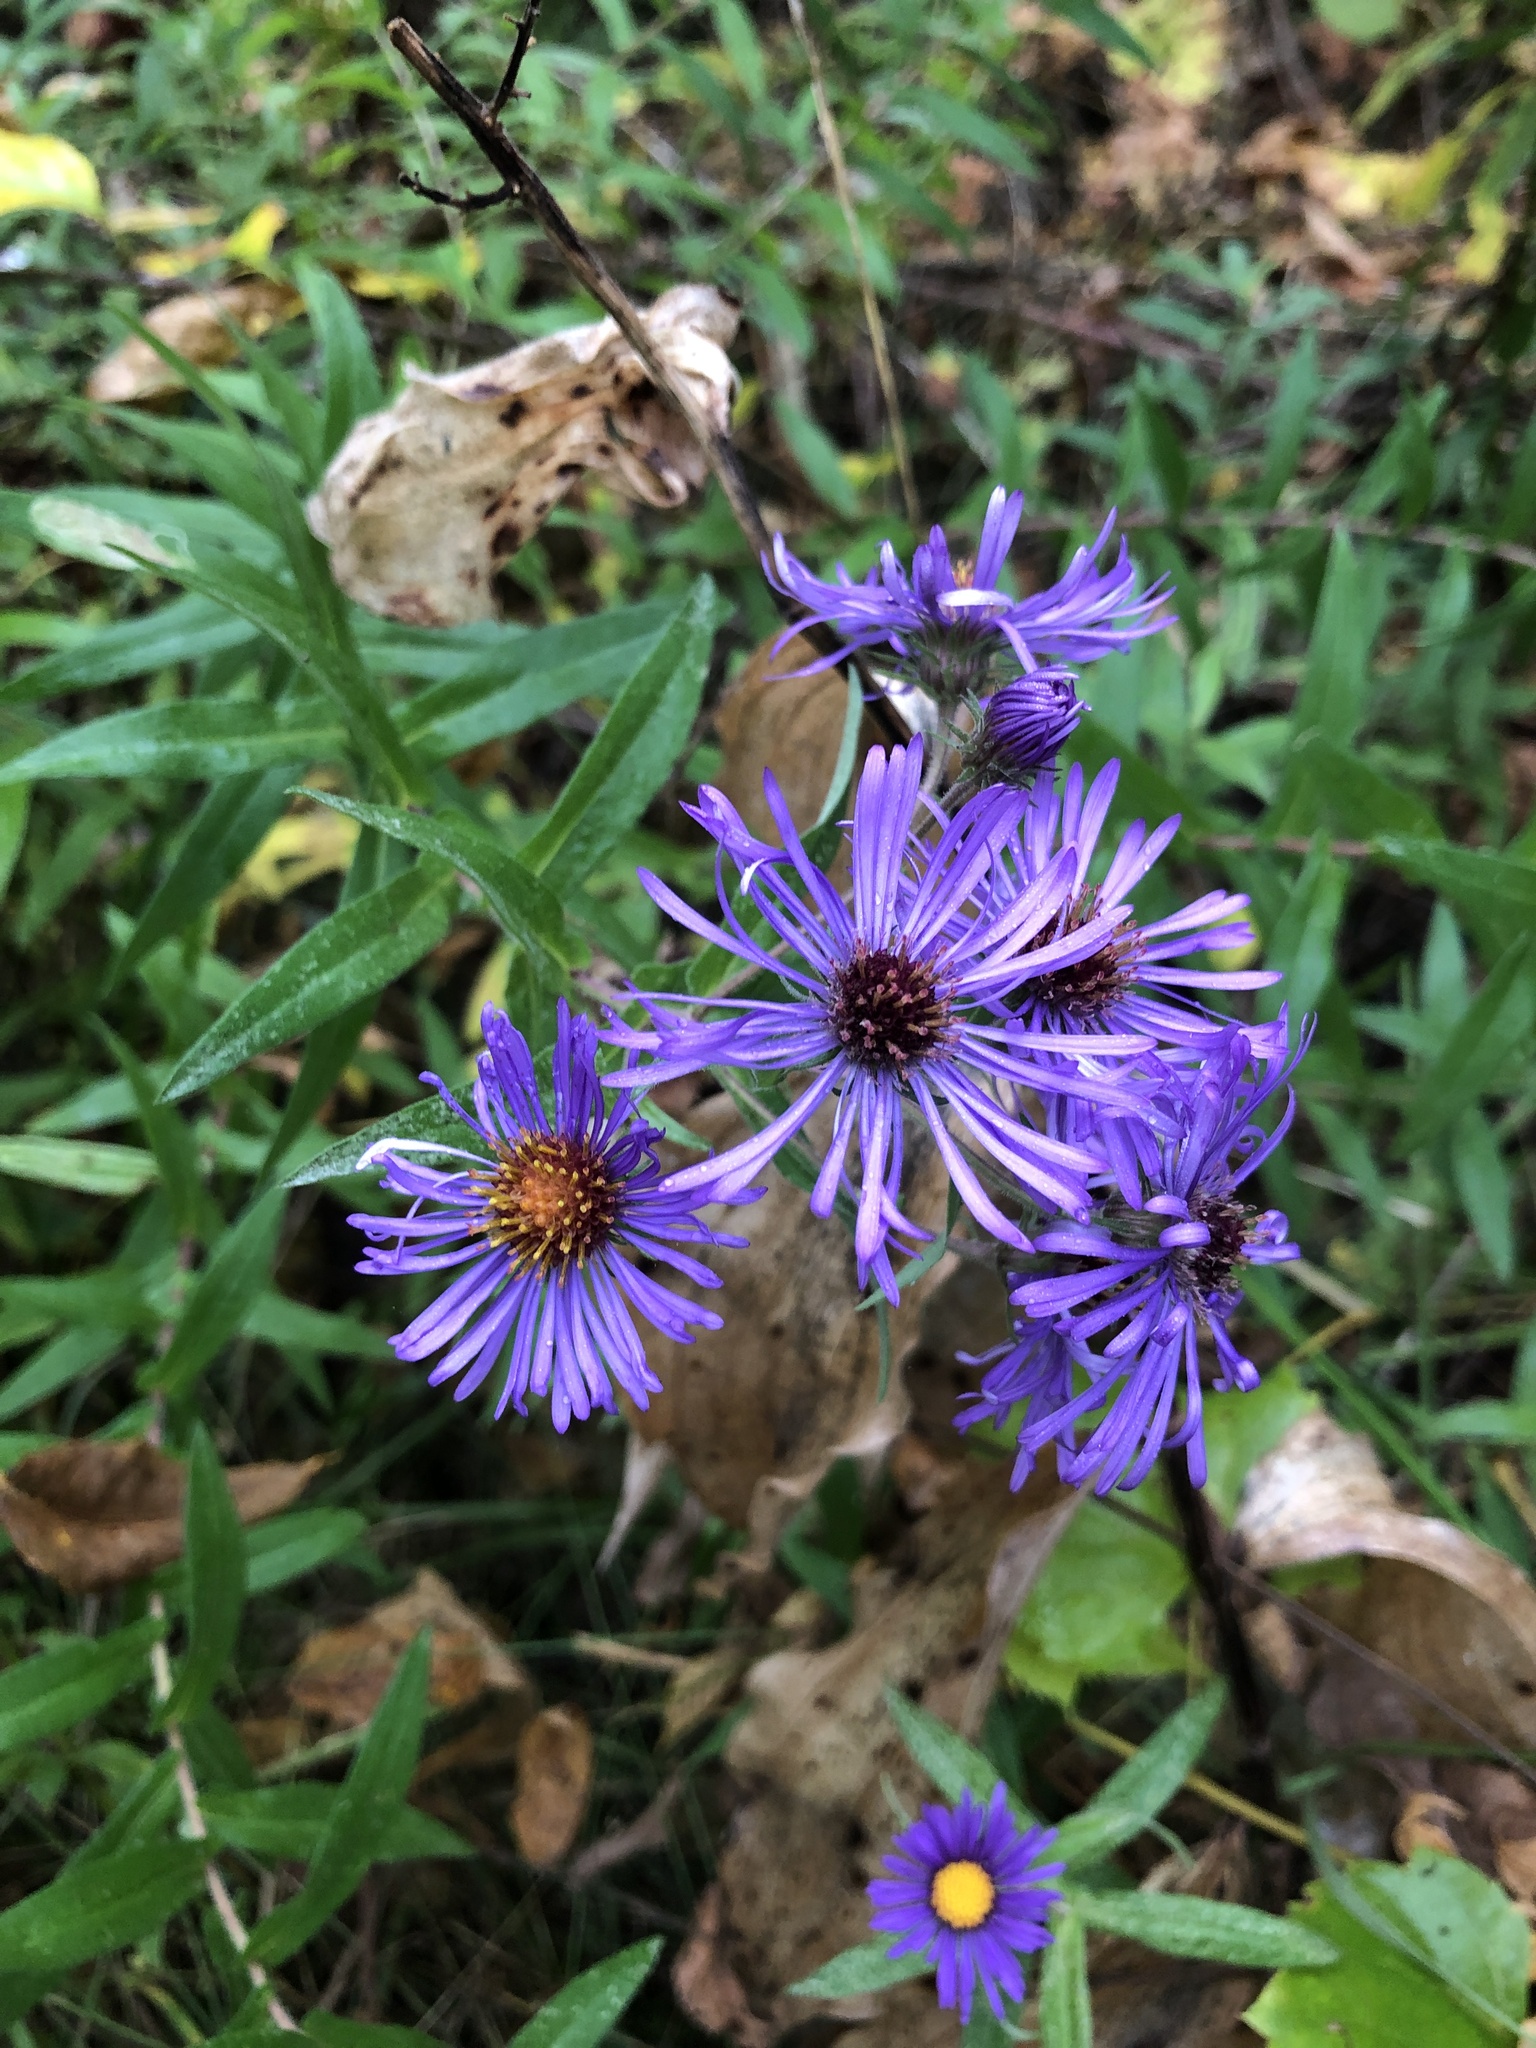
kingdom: Plantae
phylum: Tracheophyta
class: Magnoliopsida
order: Asterales
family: Asteraceae
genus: Symphyotrichum
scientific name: Symphyotrichum novae-angliae
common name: Michaelmas daisy
